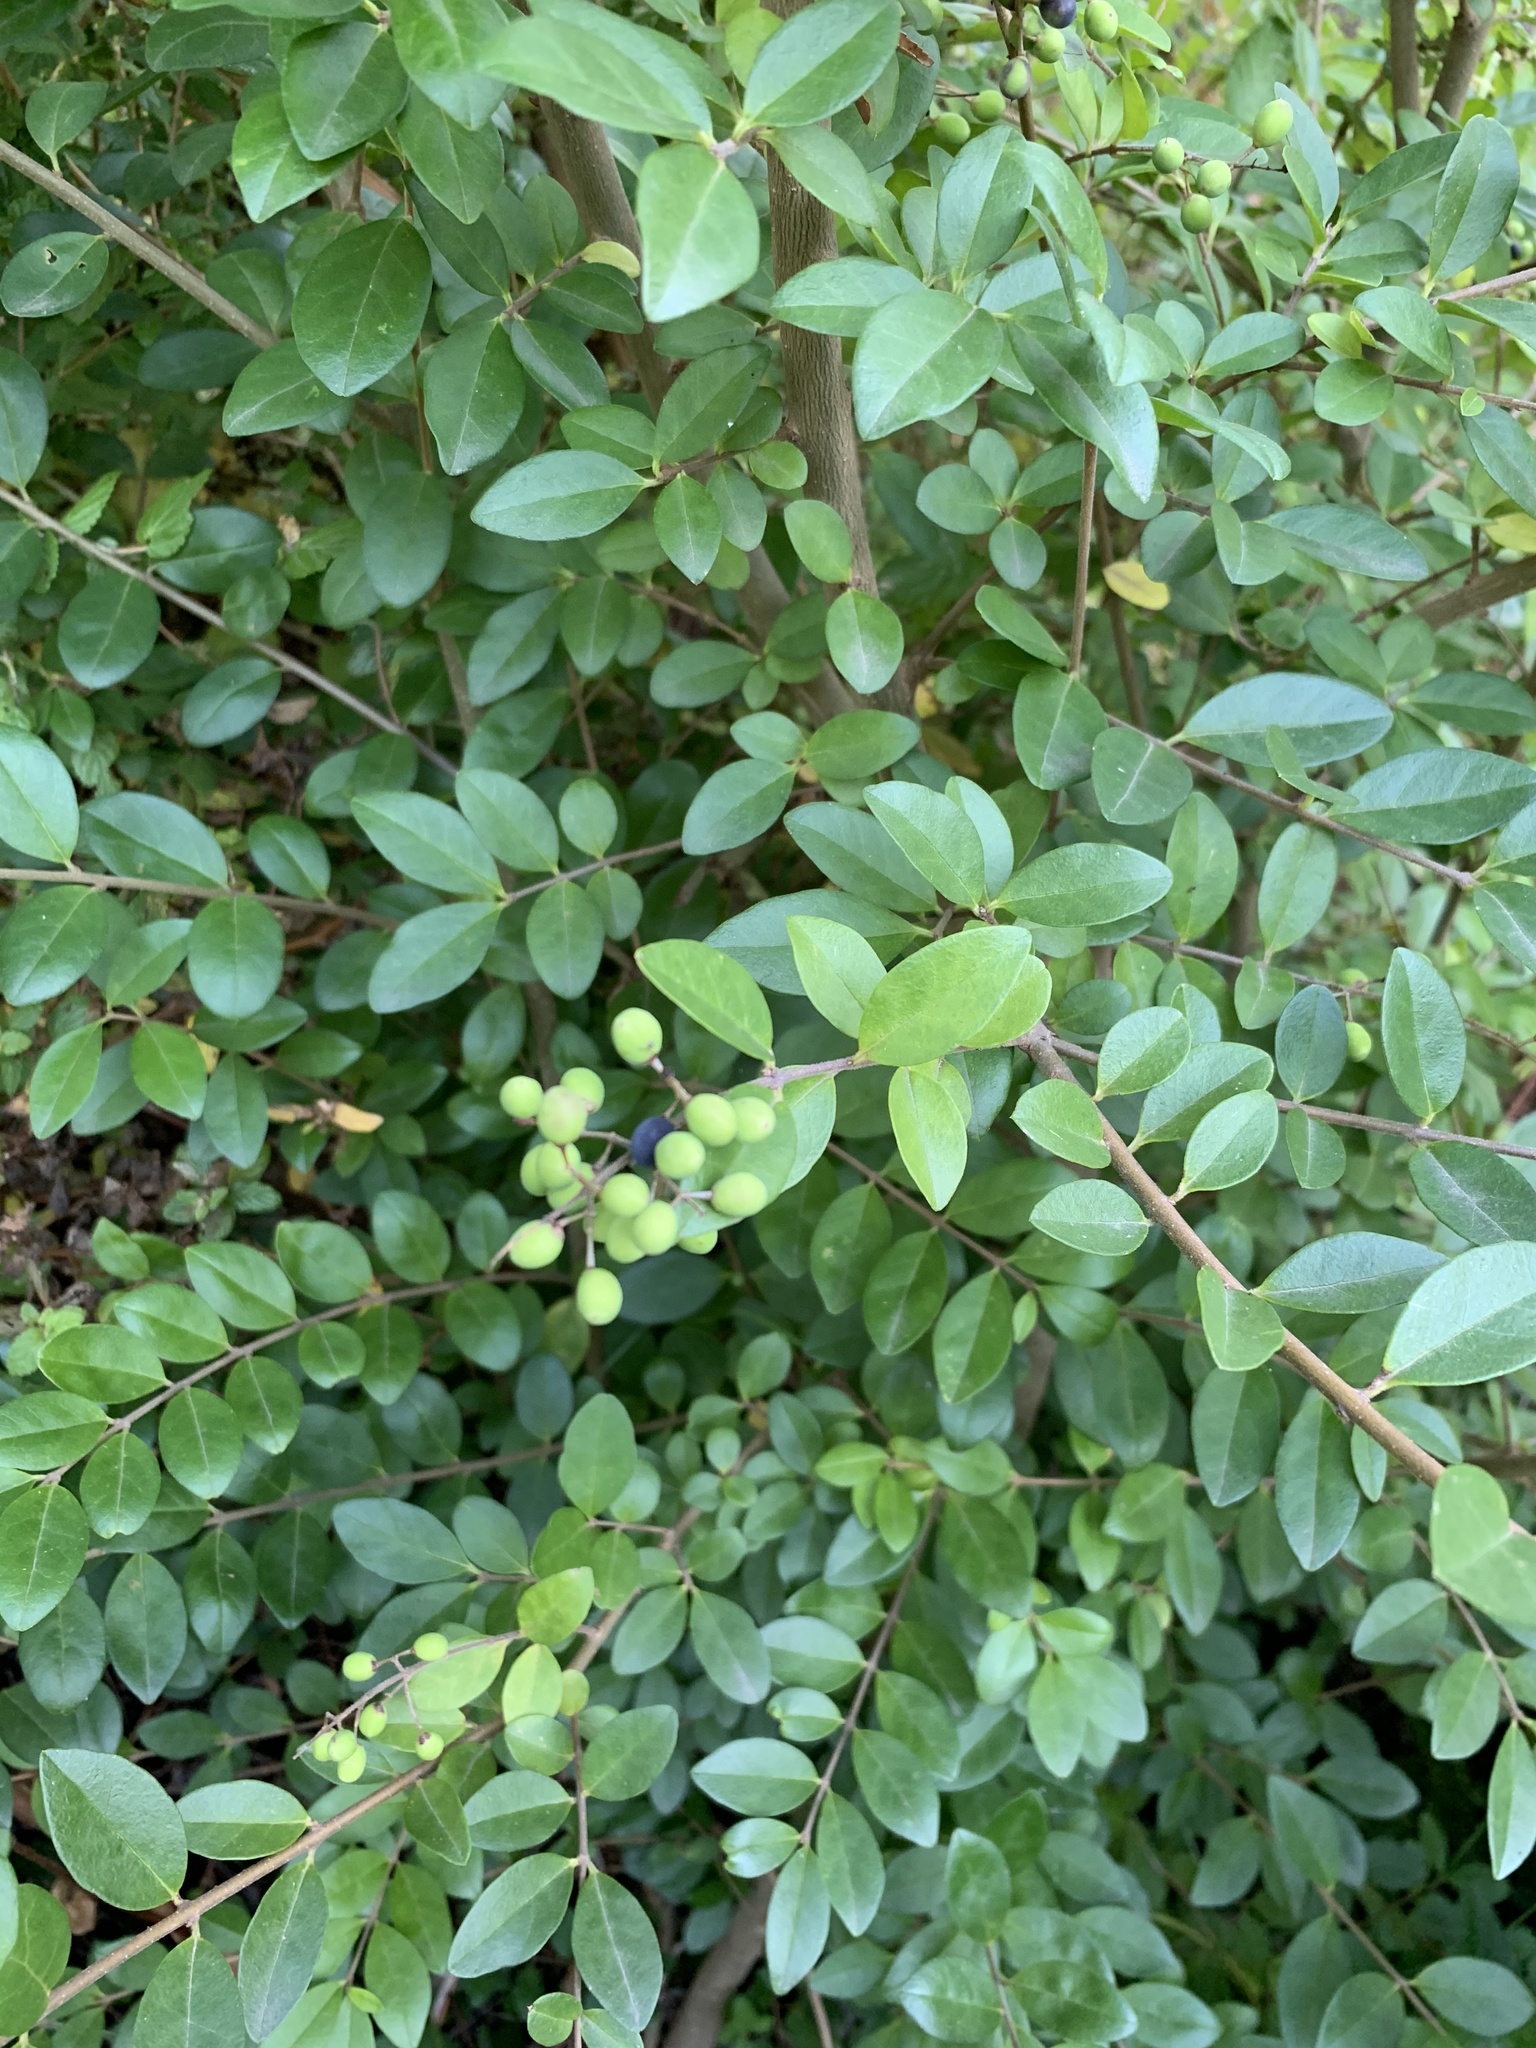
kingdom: Plantae
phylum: Tracheophyta
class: Magnoliopsida
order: Lamiales
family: Oleaceae
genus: Ligustrum
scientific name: Ligustrum sinense
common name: Chinese privet
